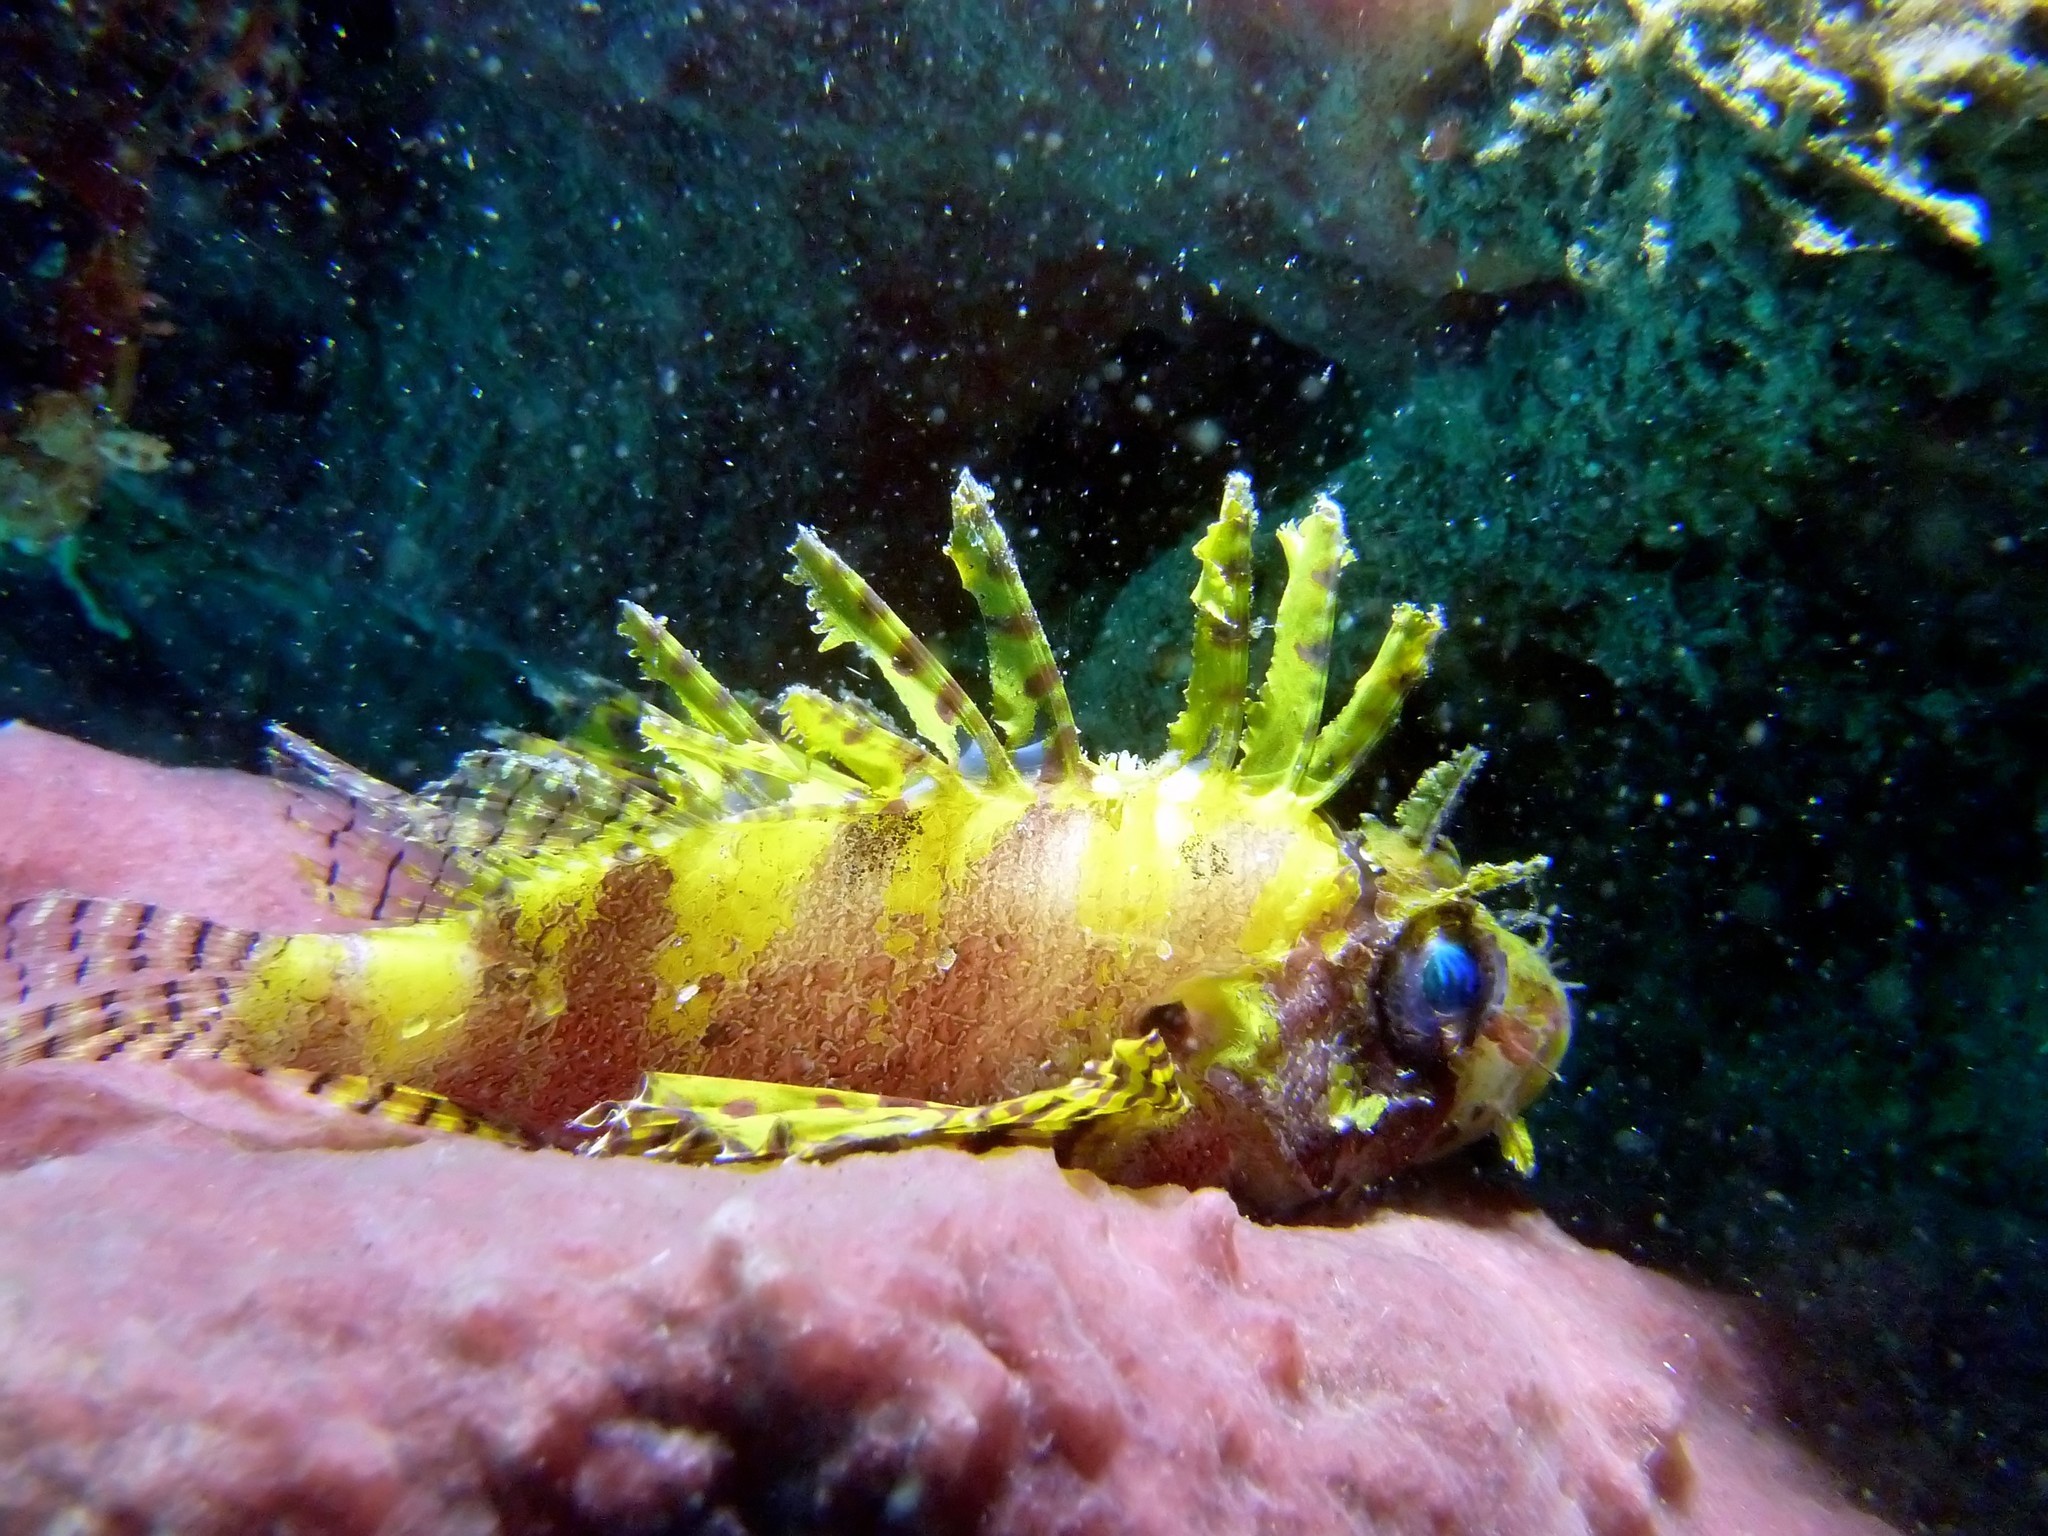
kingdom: Animalia
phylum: Chordata
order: Scorpaeniformes
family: Scorpaenidae
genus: Dendrochirus
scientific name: Dendrochirus brachypterus
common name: Shortfin turkeyfish
